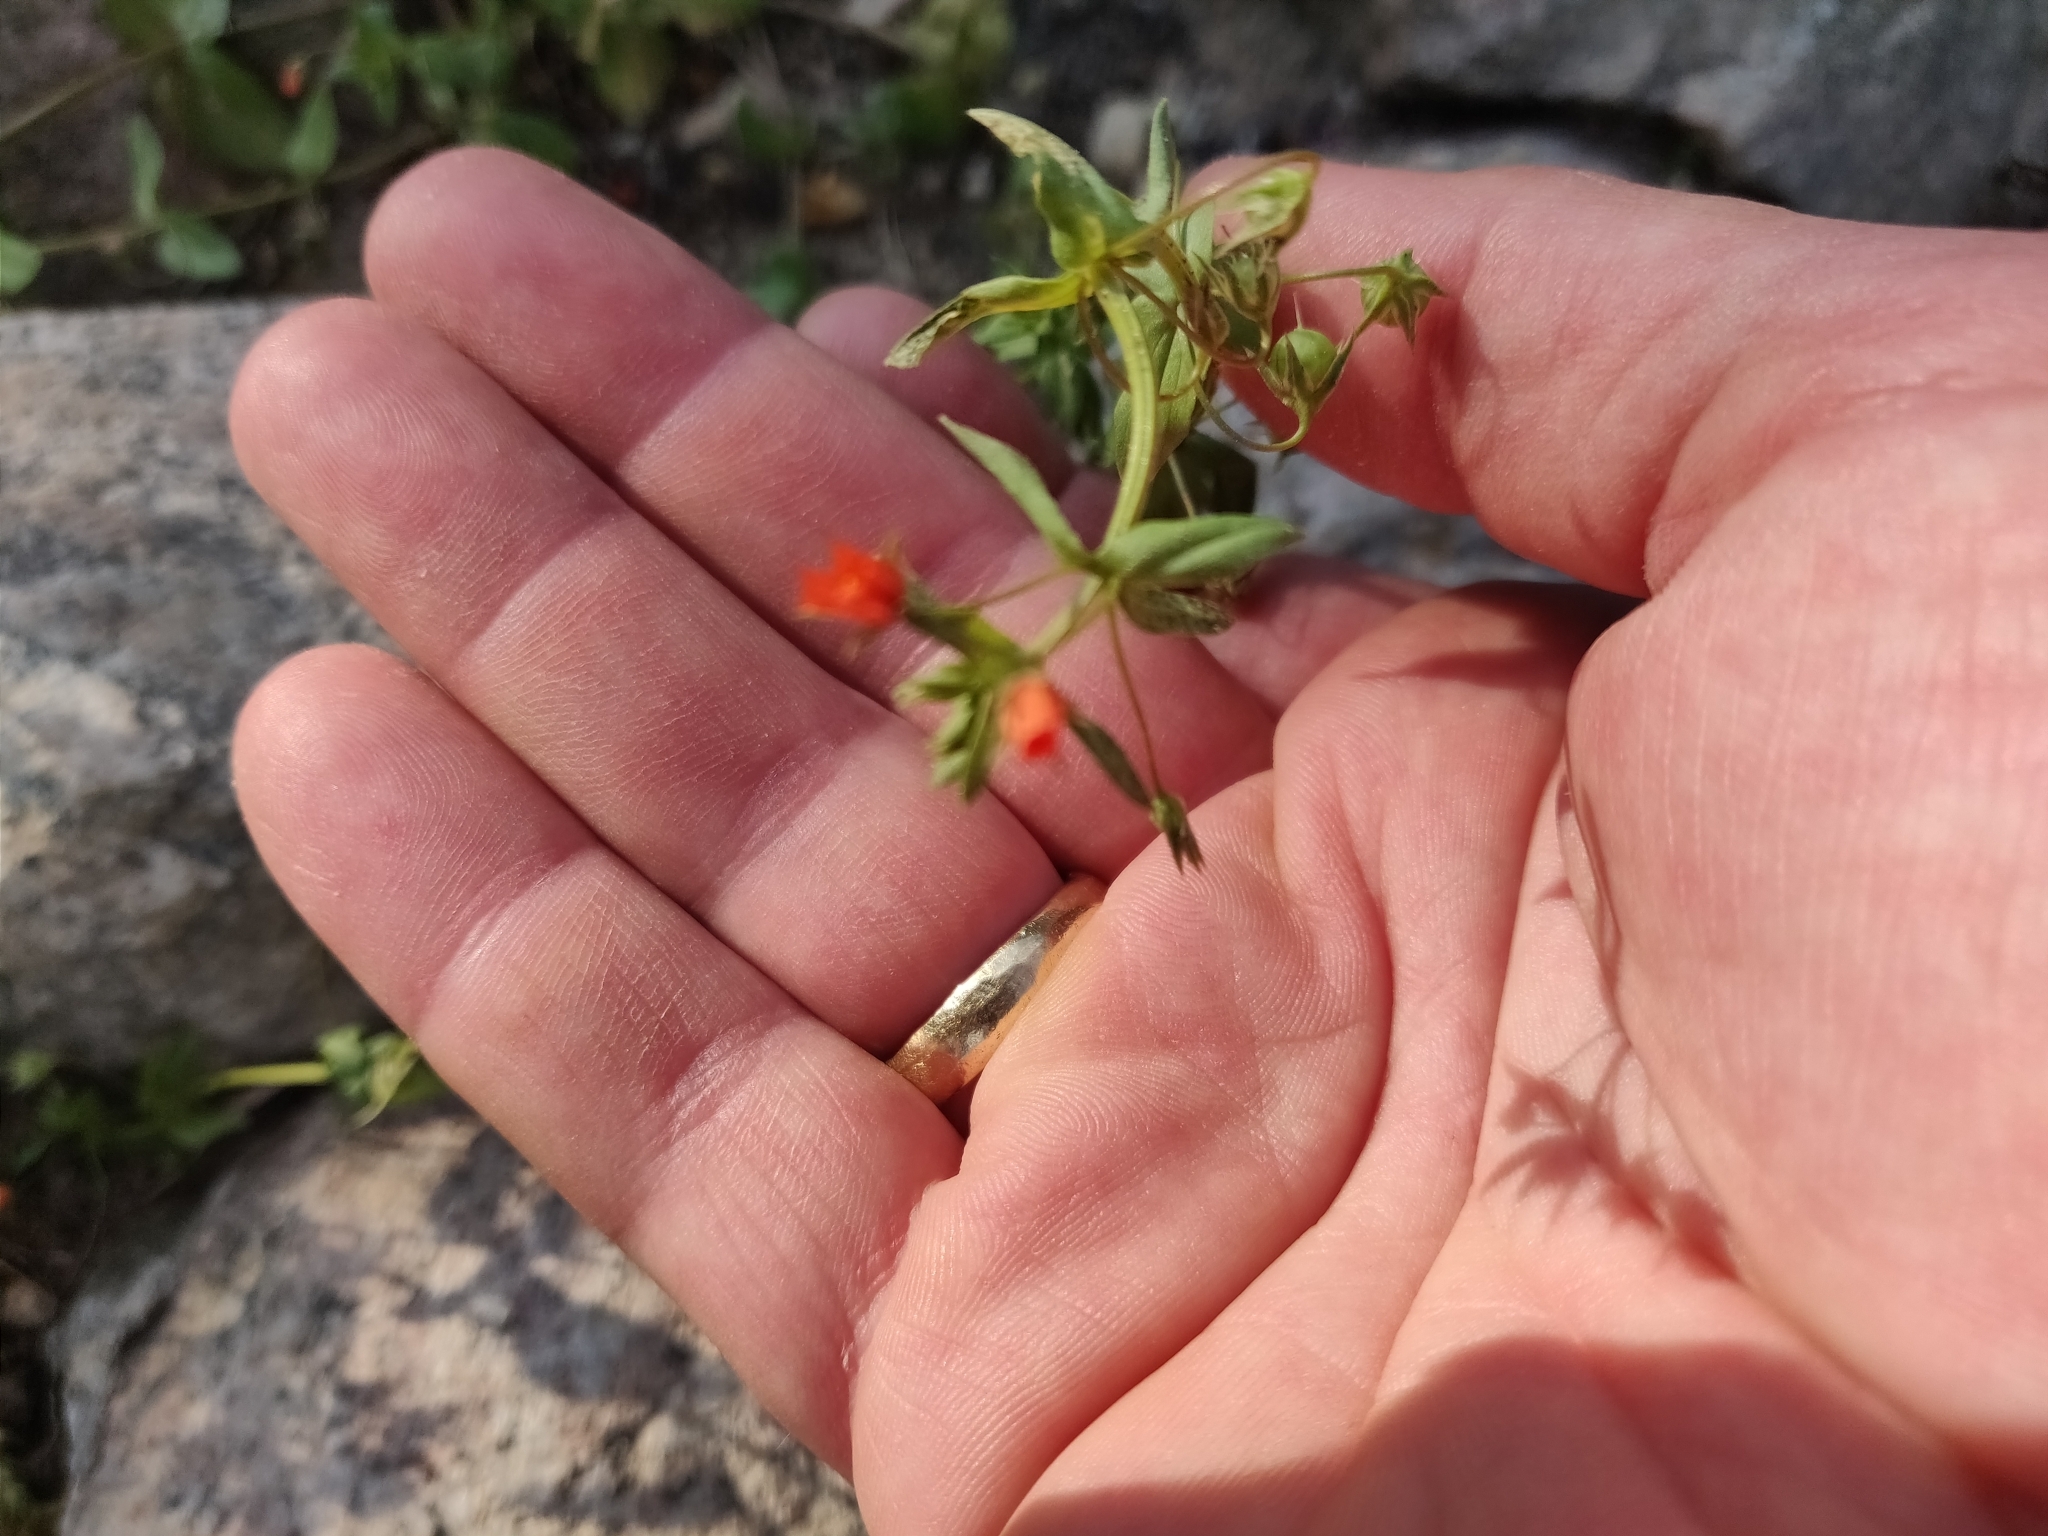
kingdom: Plantae
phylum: Tracheophyta
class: Magnoliopsida
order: Ericales
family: Primulaceae
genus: Lysimachia
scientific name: Lysimachia arvensis
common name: Scarlet pimpernel
